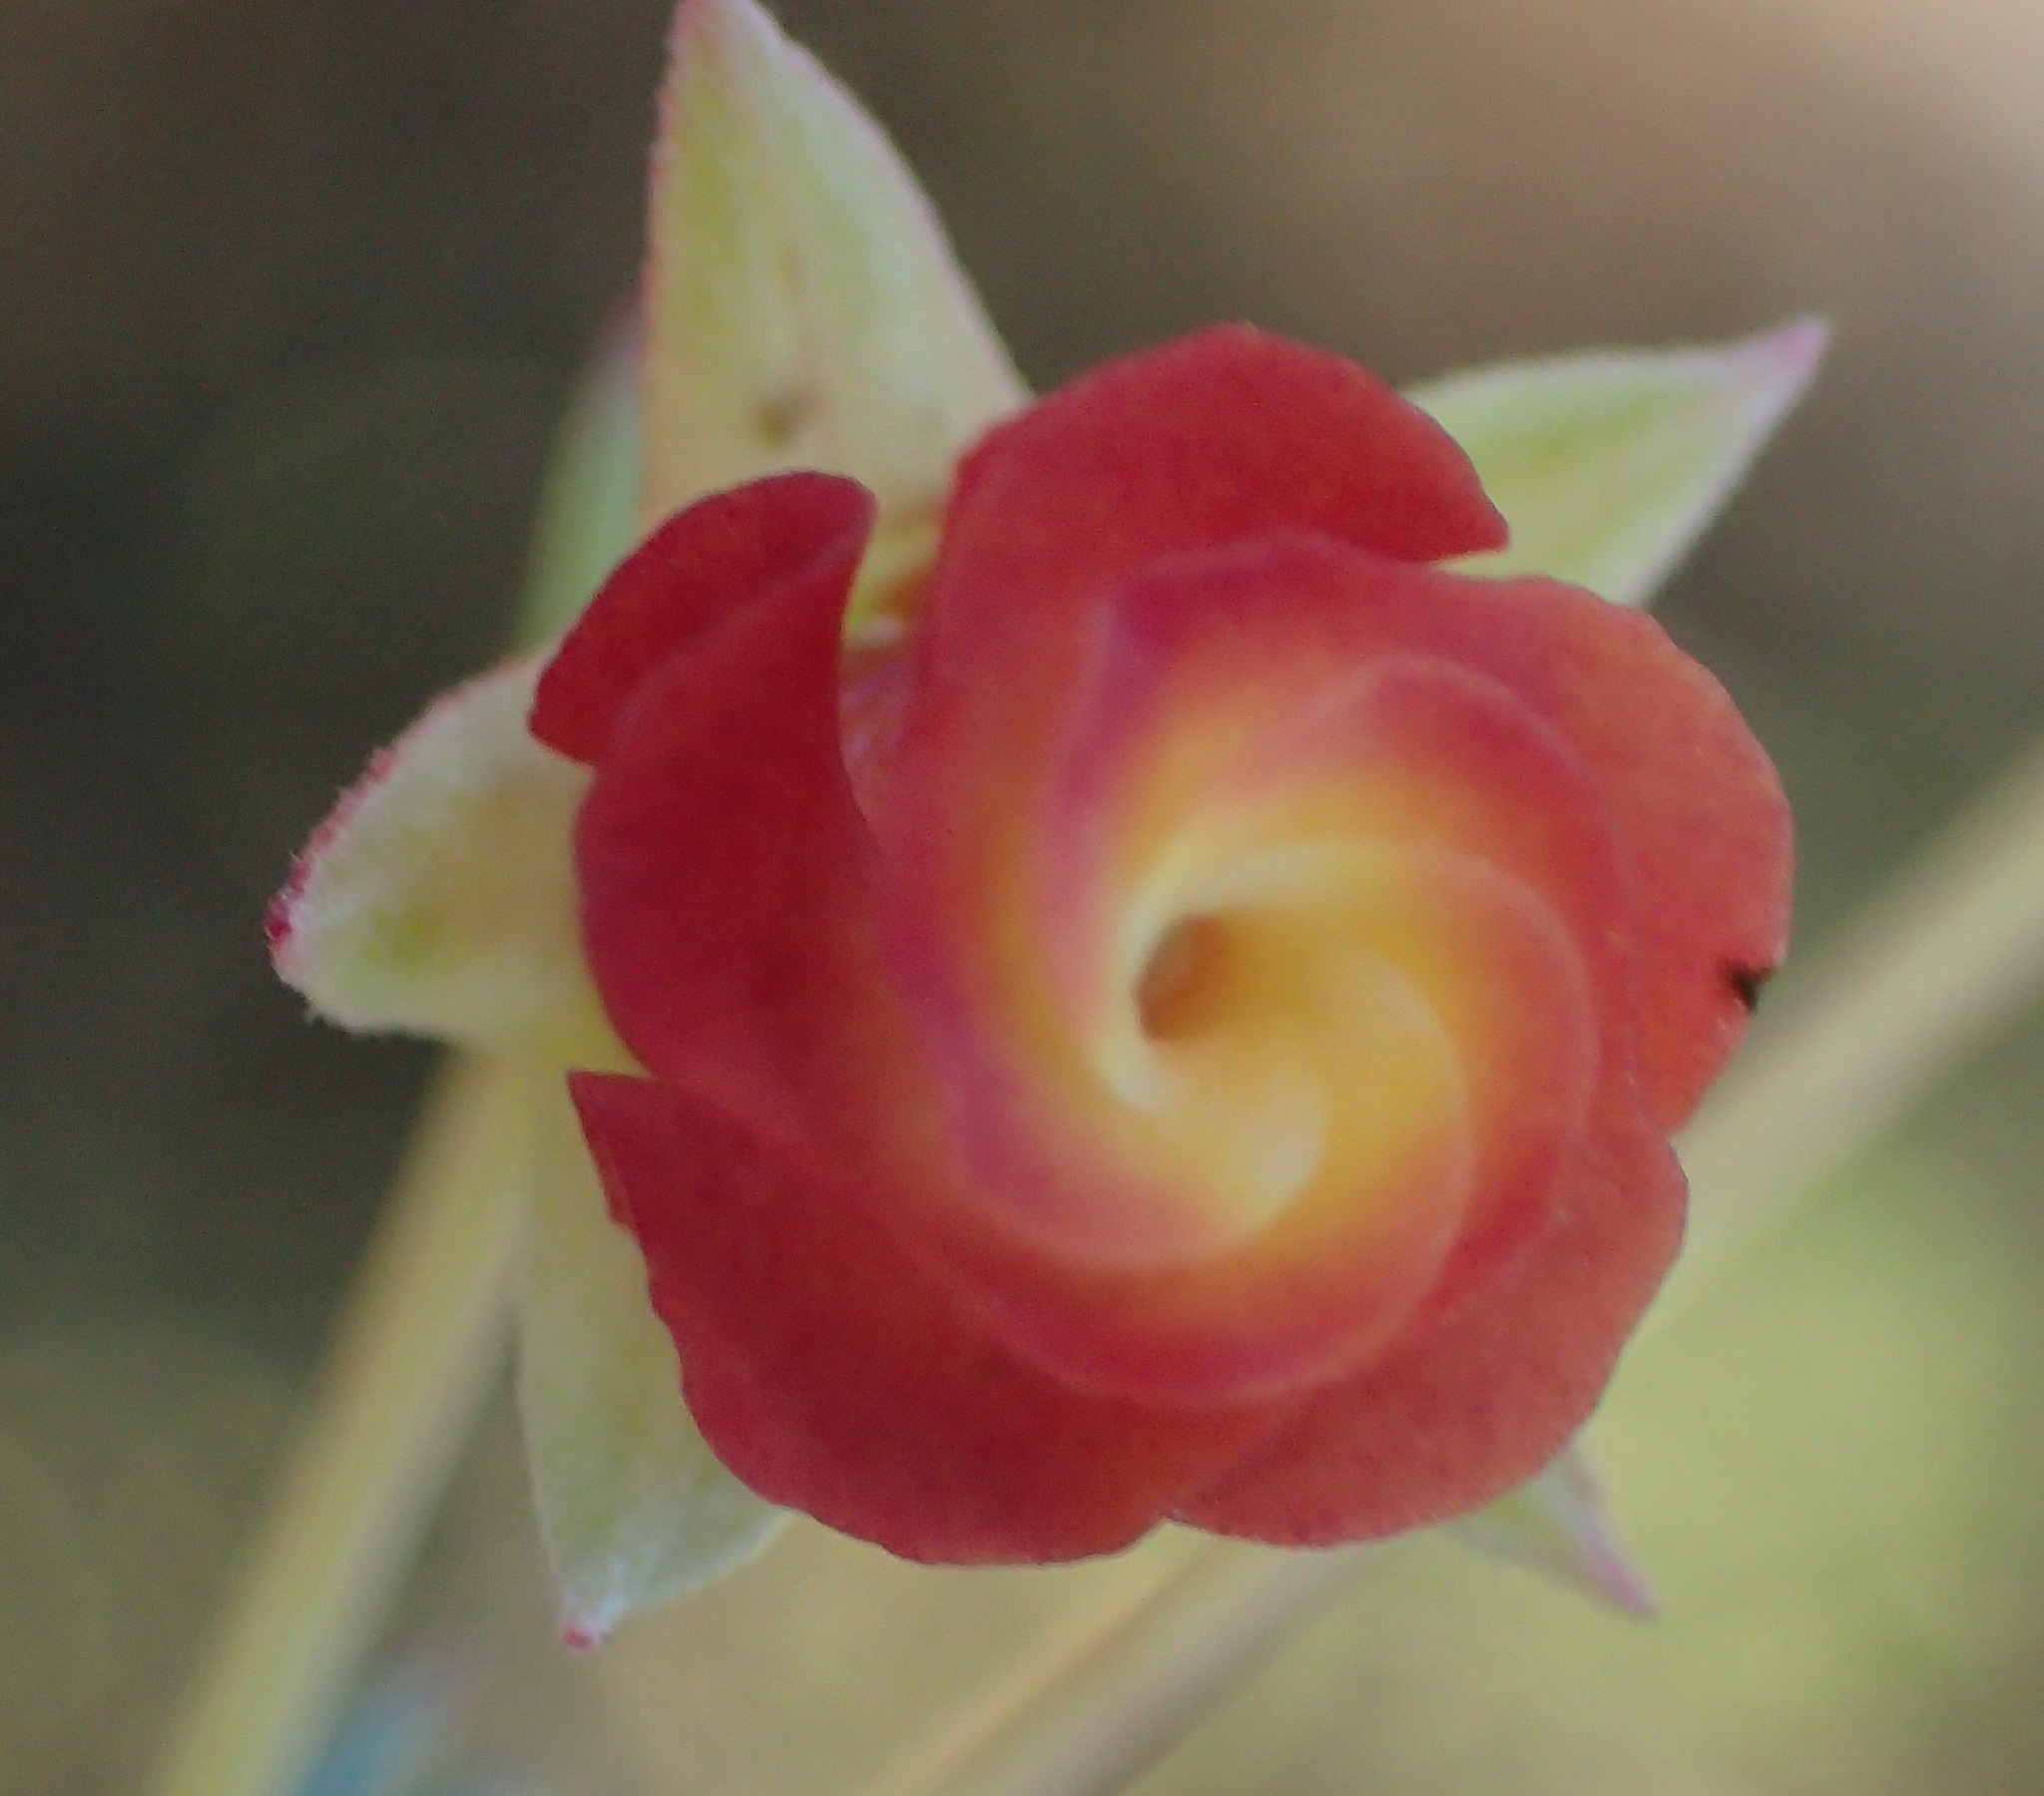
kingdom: Plantae
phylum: Tracheophyta
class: Magnoliopsida
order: Malvales
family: Malvaceae
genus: Hermannia
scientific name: Hermannia filifolia
